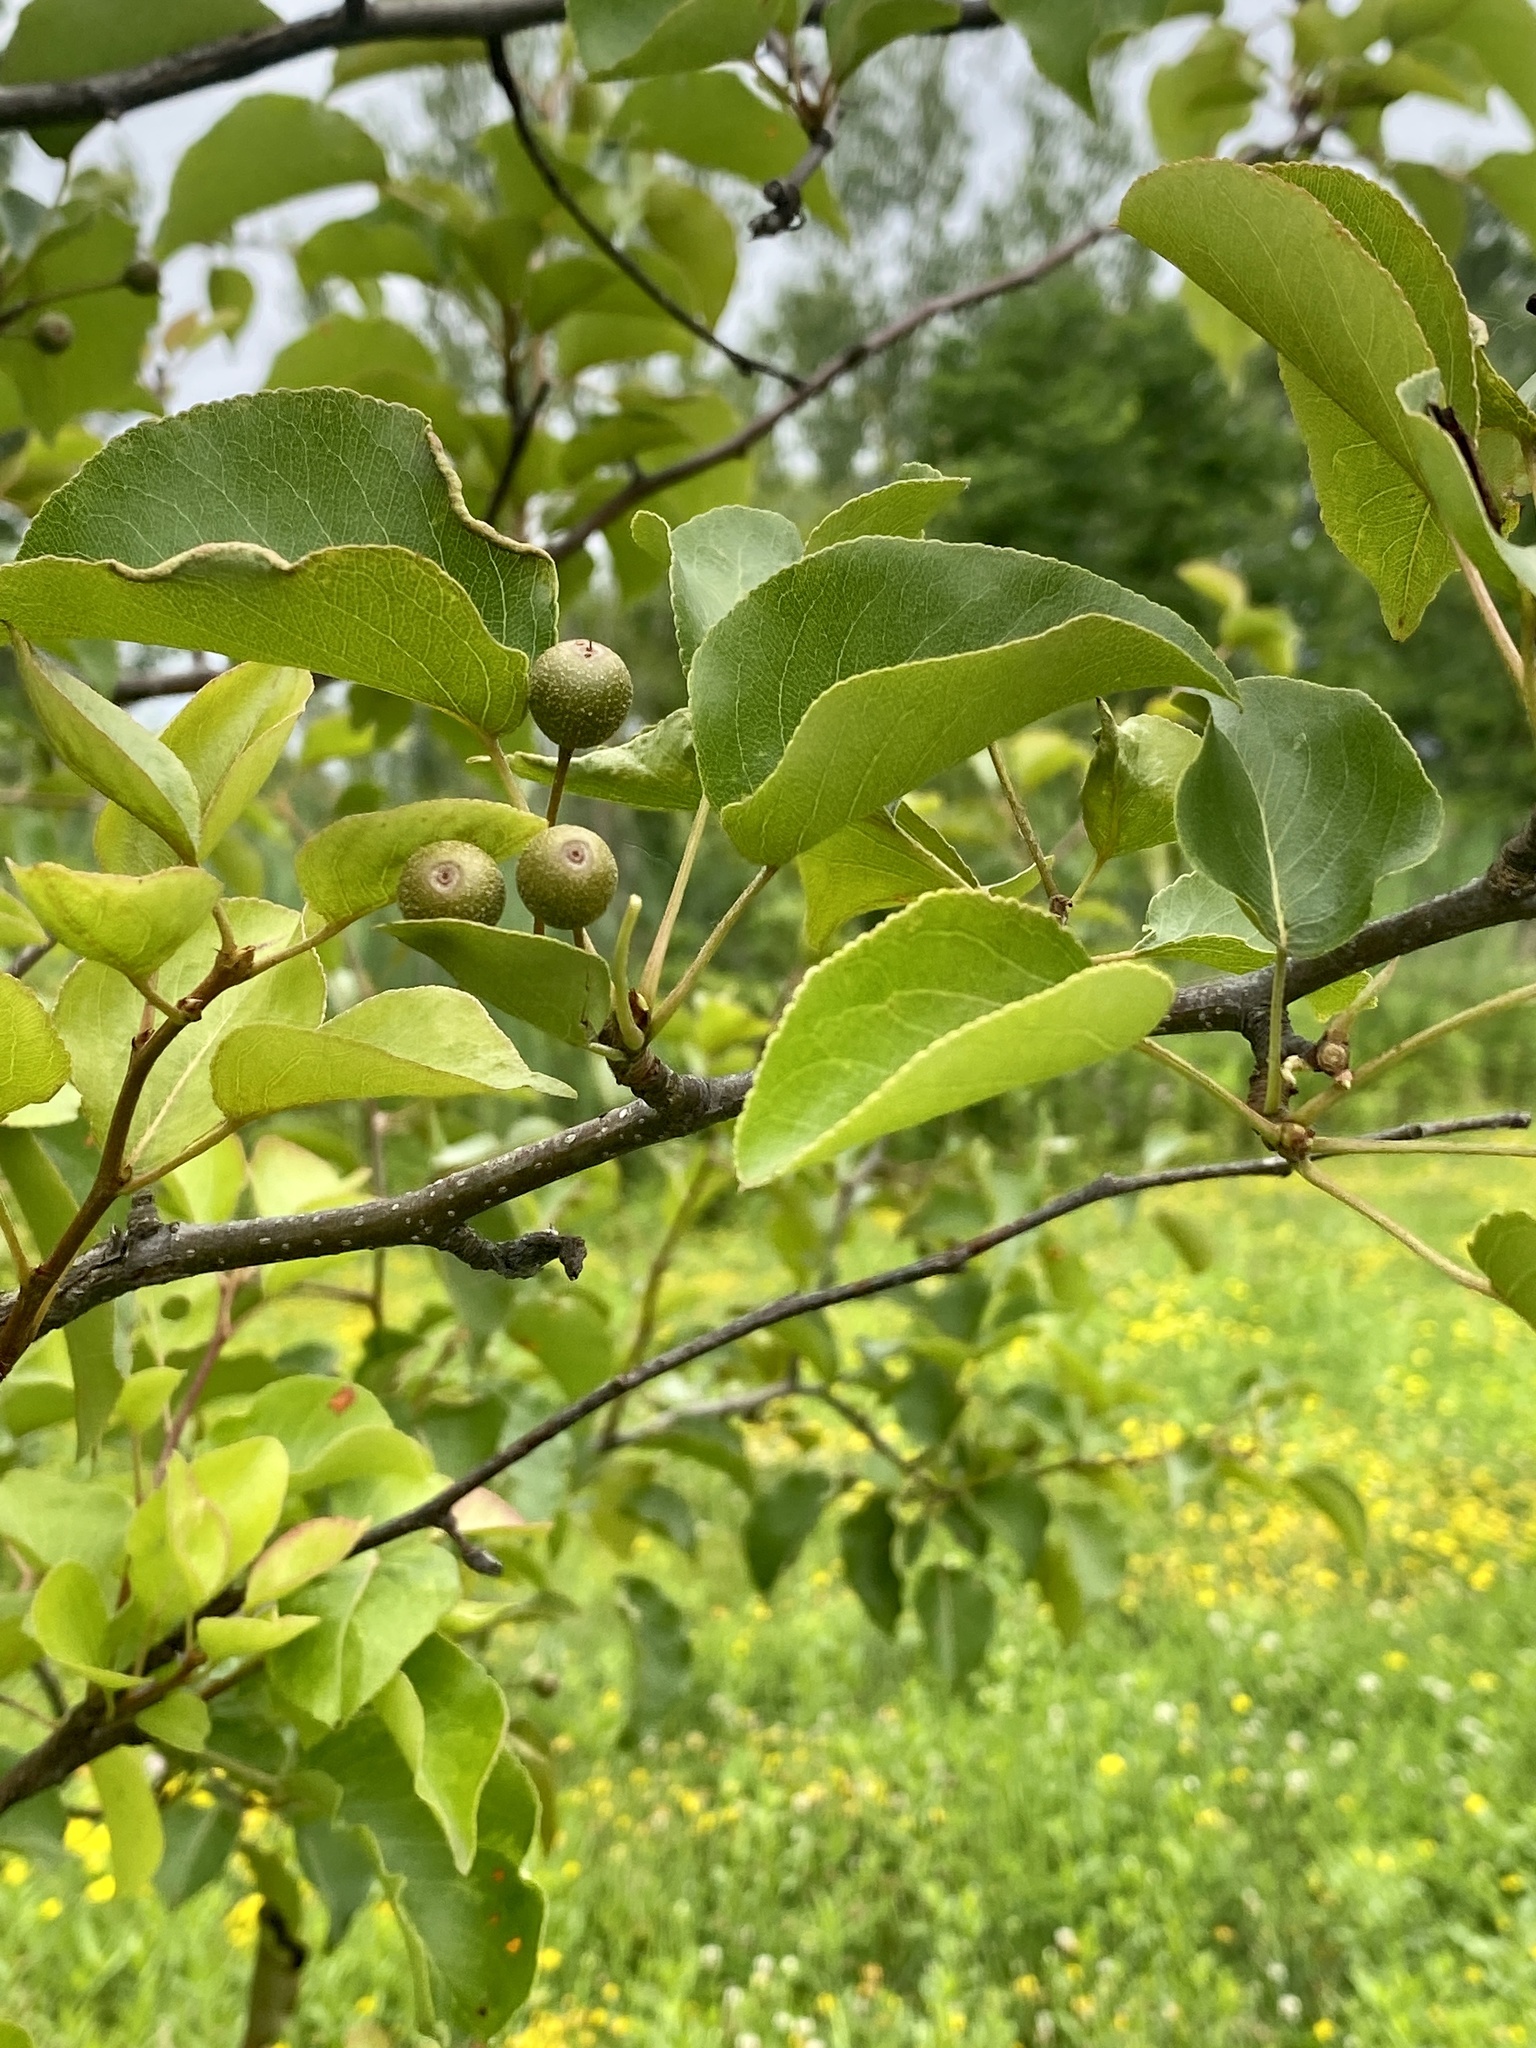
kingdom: Plantae
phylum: Tracheophyta
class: Magnoliopsida
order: Rosales
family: Rosaceae
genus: Pyrus
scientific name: Pyrus calleryana
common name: Callery pear
